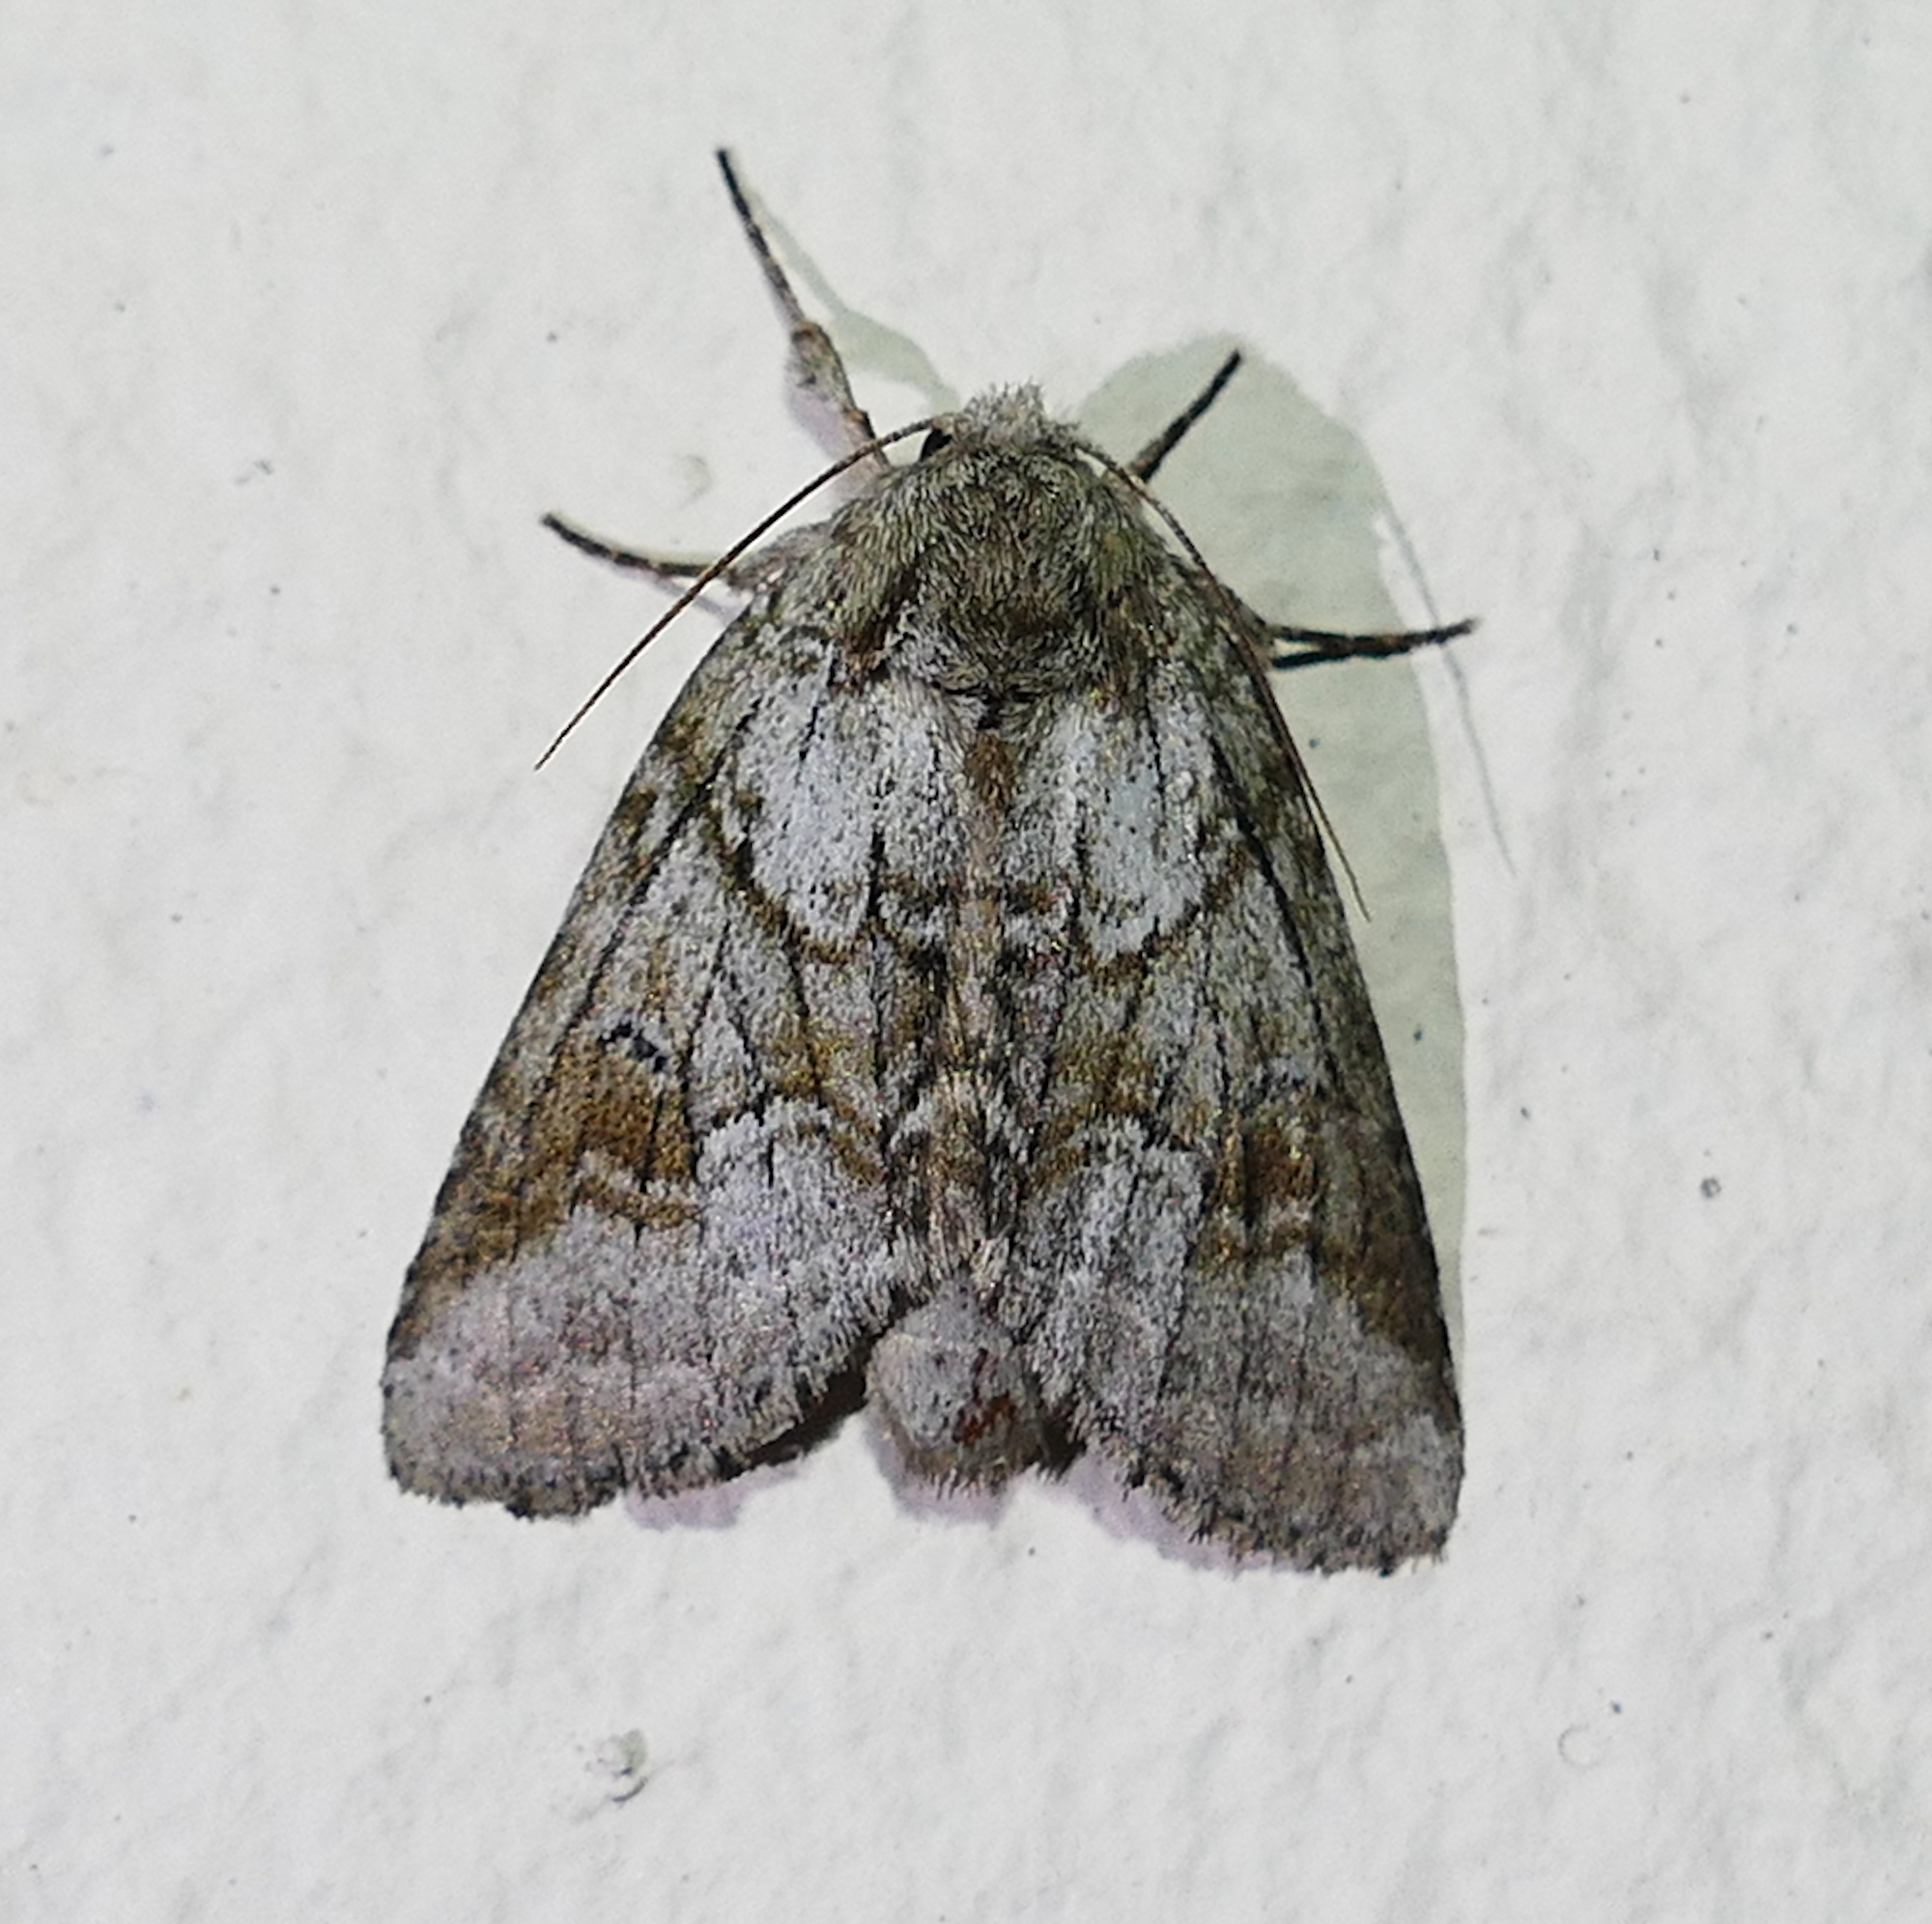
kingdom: Animalia
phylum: Arthropoda
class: Insecta
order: Lepidoptera
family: Notodontidae
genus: Lochmaeus
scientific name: Lochmaeus bilineata
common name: Double-lined prominent
